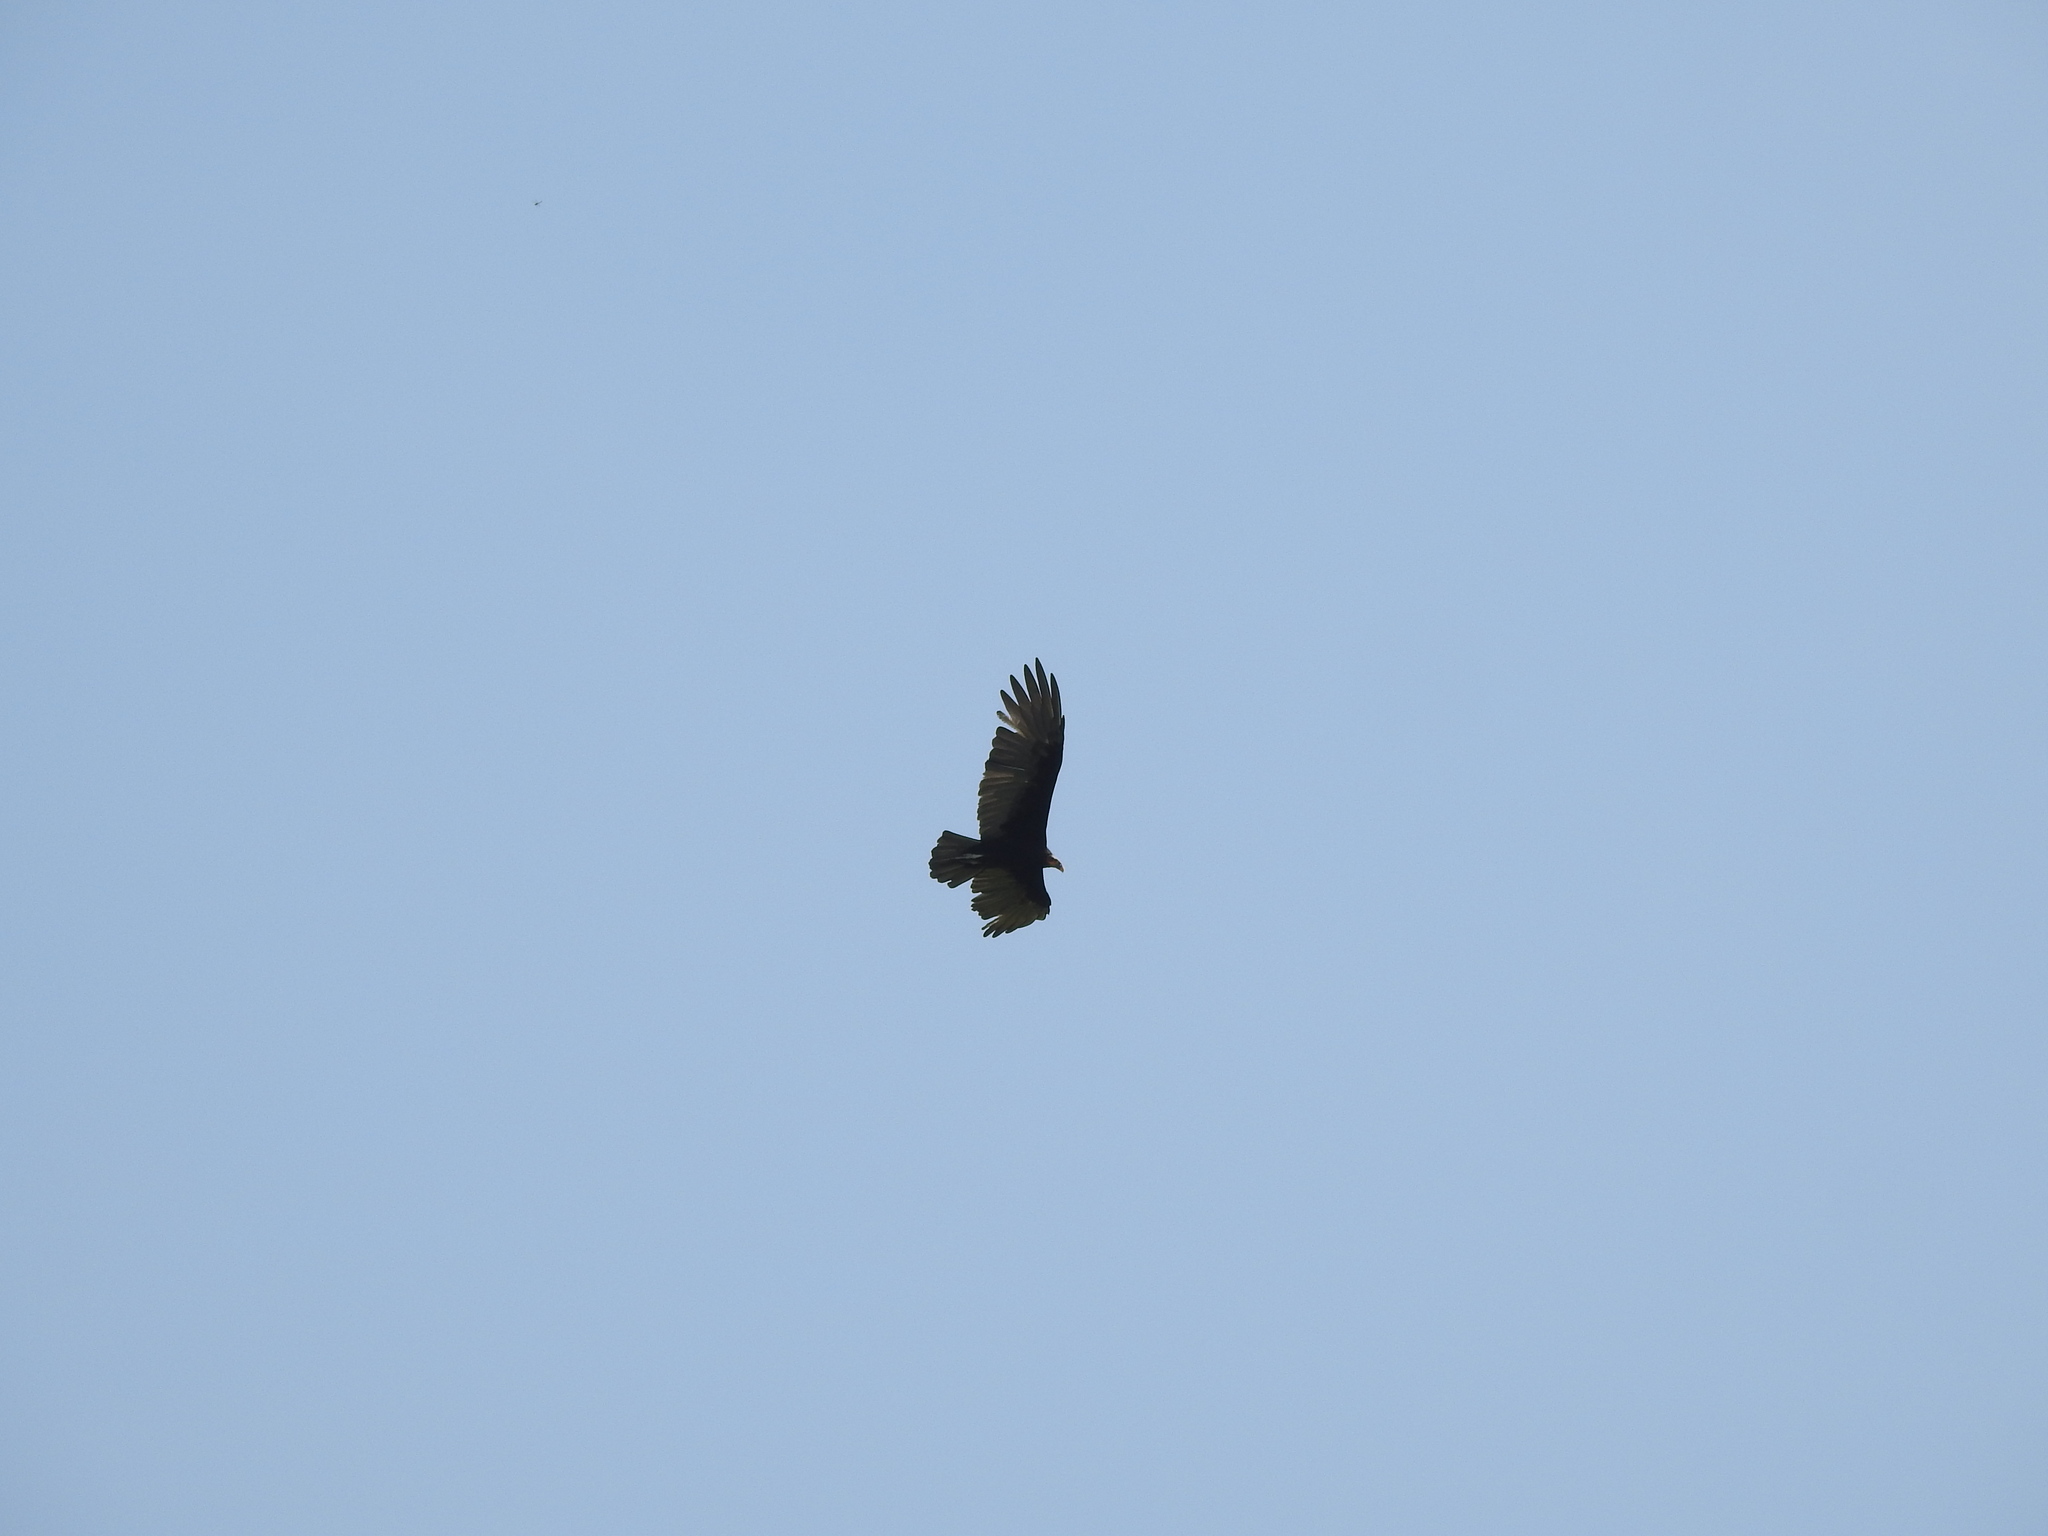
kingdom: Animalia
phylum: Chordata
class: Aves
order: Accipitriformes
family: Cathartidae
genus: Cathartes
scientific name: Cathartes burrovianus
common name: Lesser yellow-headed vulture
